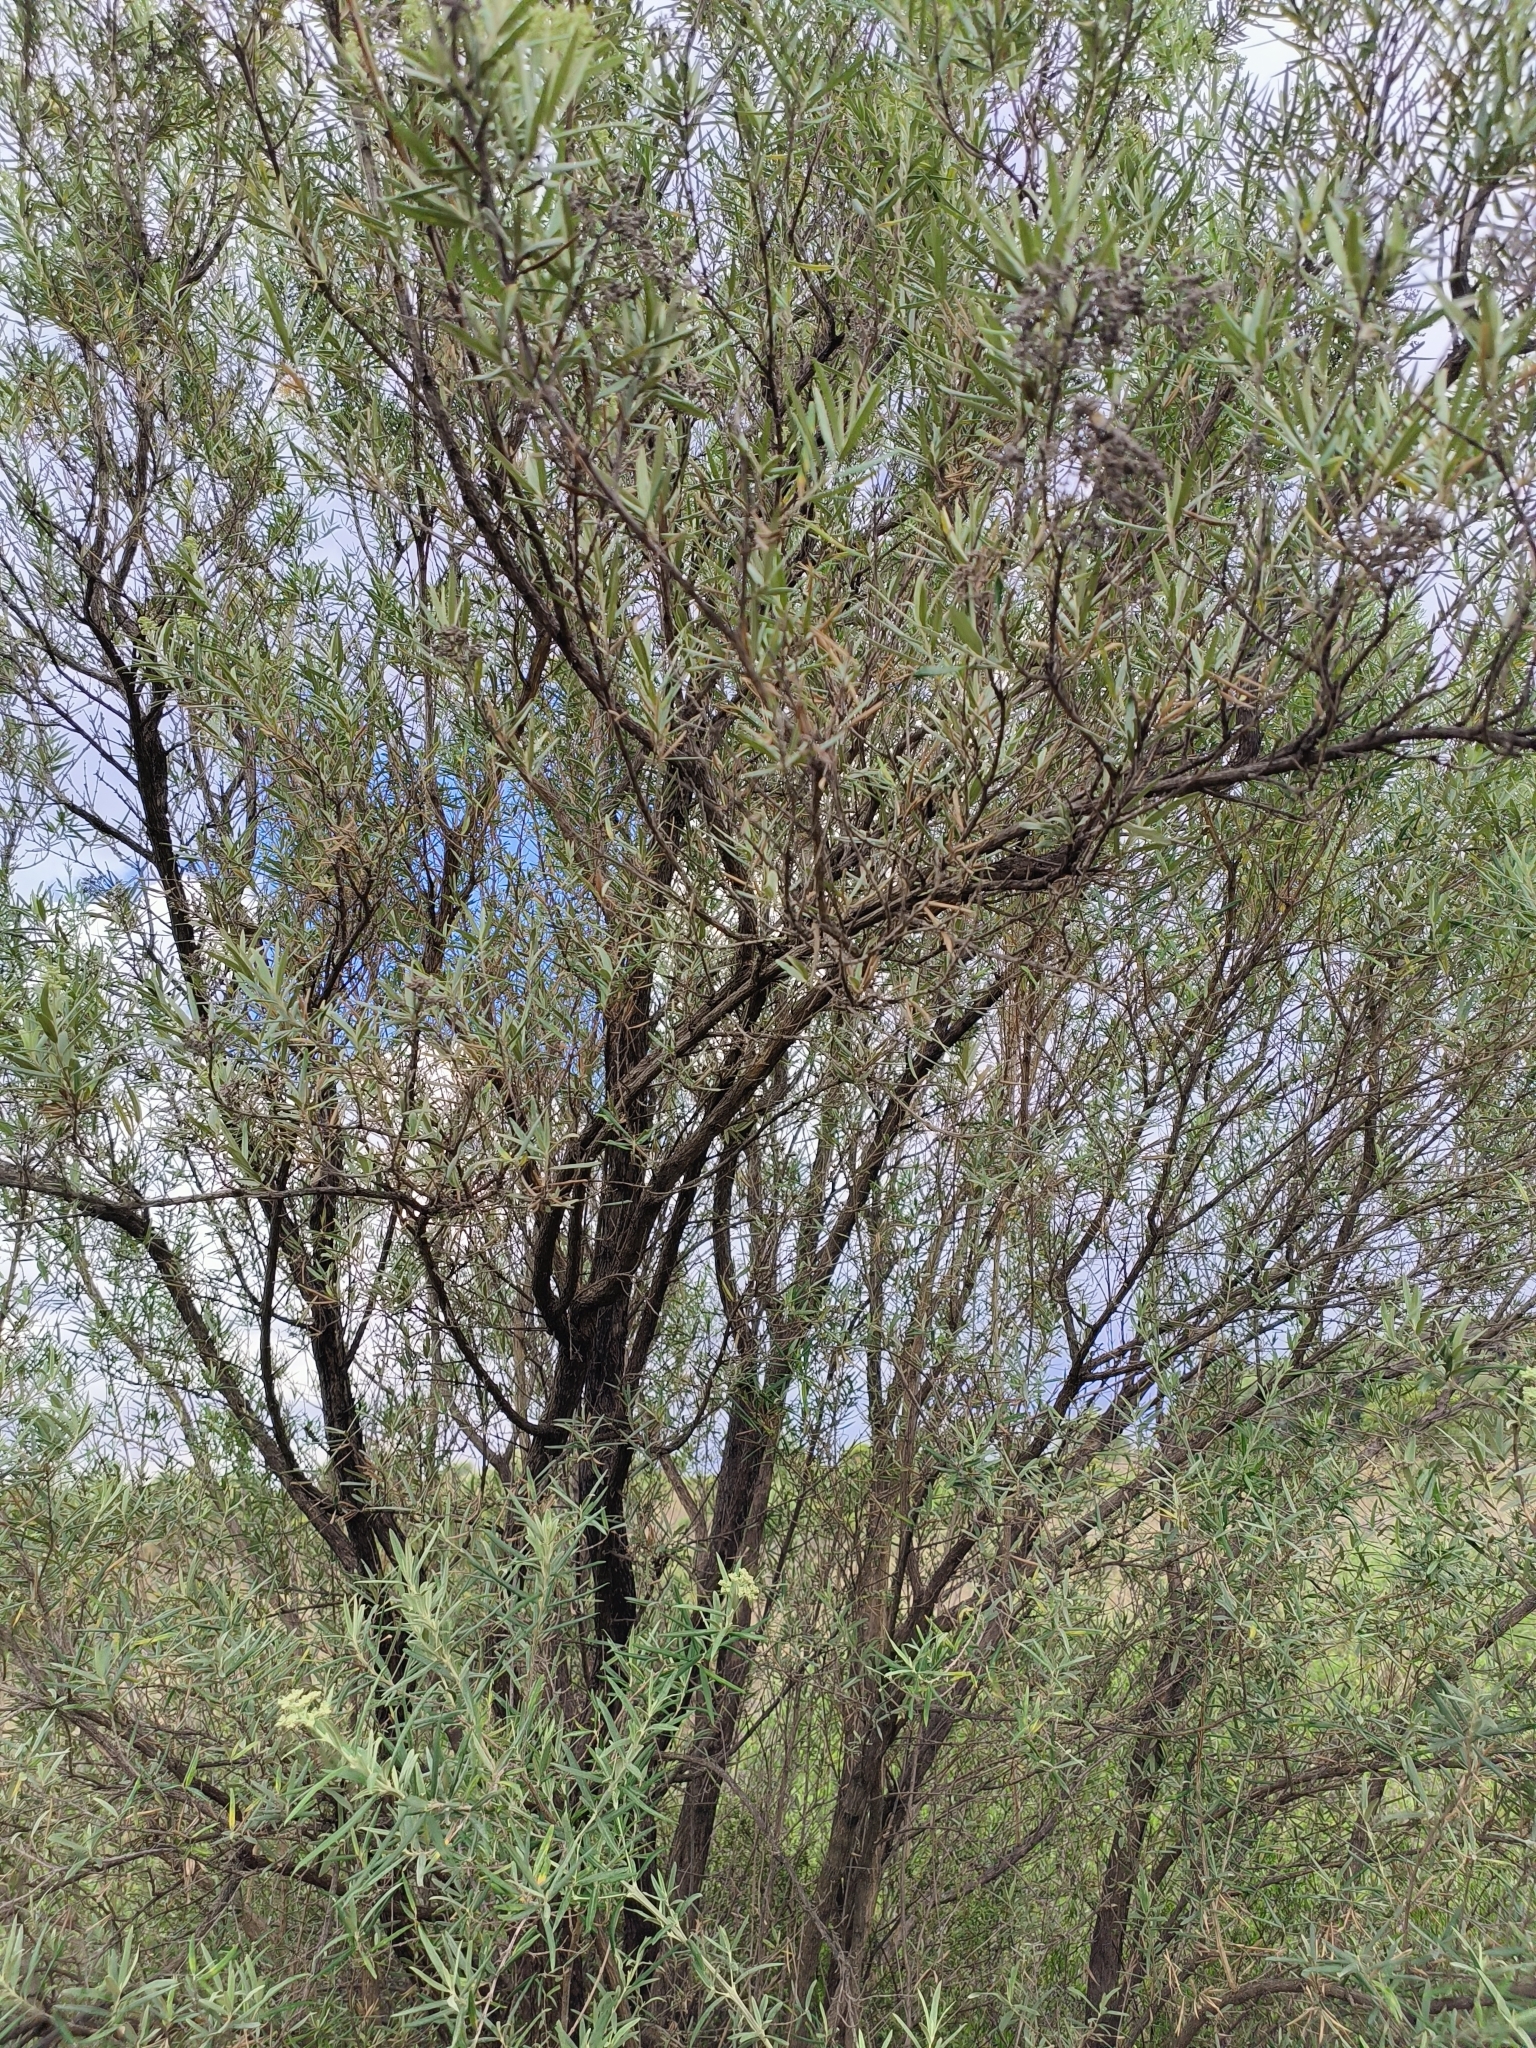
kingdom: Plantae
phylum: Tracheophyta
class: Magnoliopsida
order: Lamiales
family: Scrophulariaceae
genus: Buddleja
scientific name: Buddleja saligna
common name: False olive
